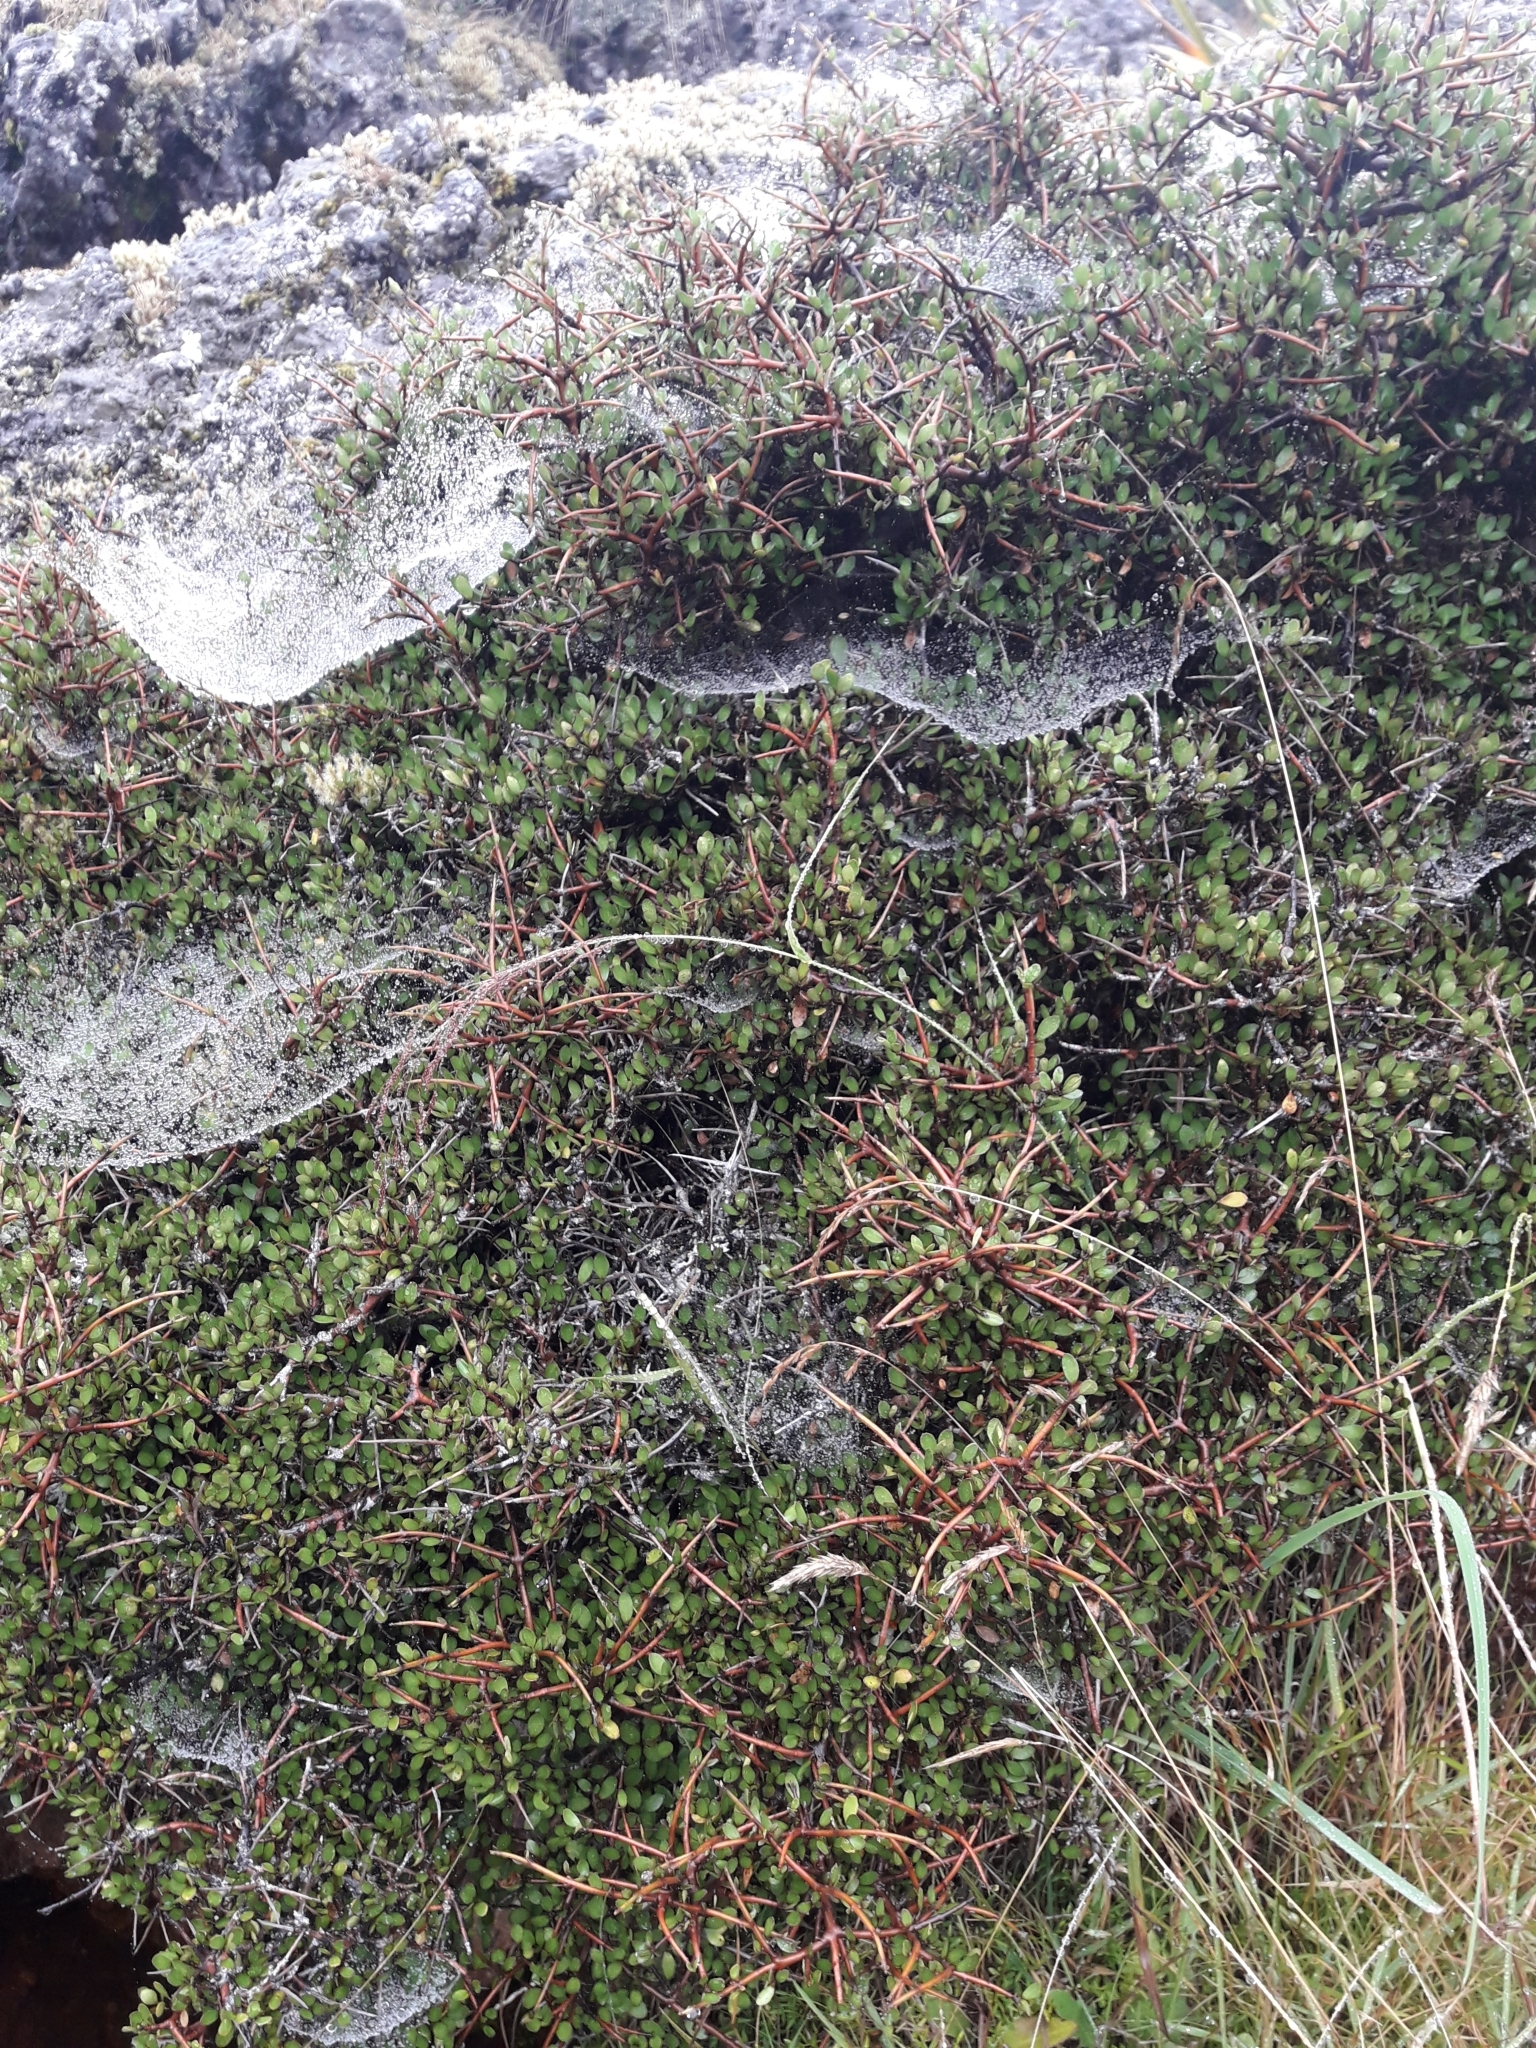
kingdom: Plantae
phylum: Tracheophyta
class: Magnoliopsida
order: Oxalidales
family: Elaeocarpaceae
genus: Aristotelia
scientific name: Aristotelia fruticosa
